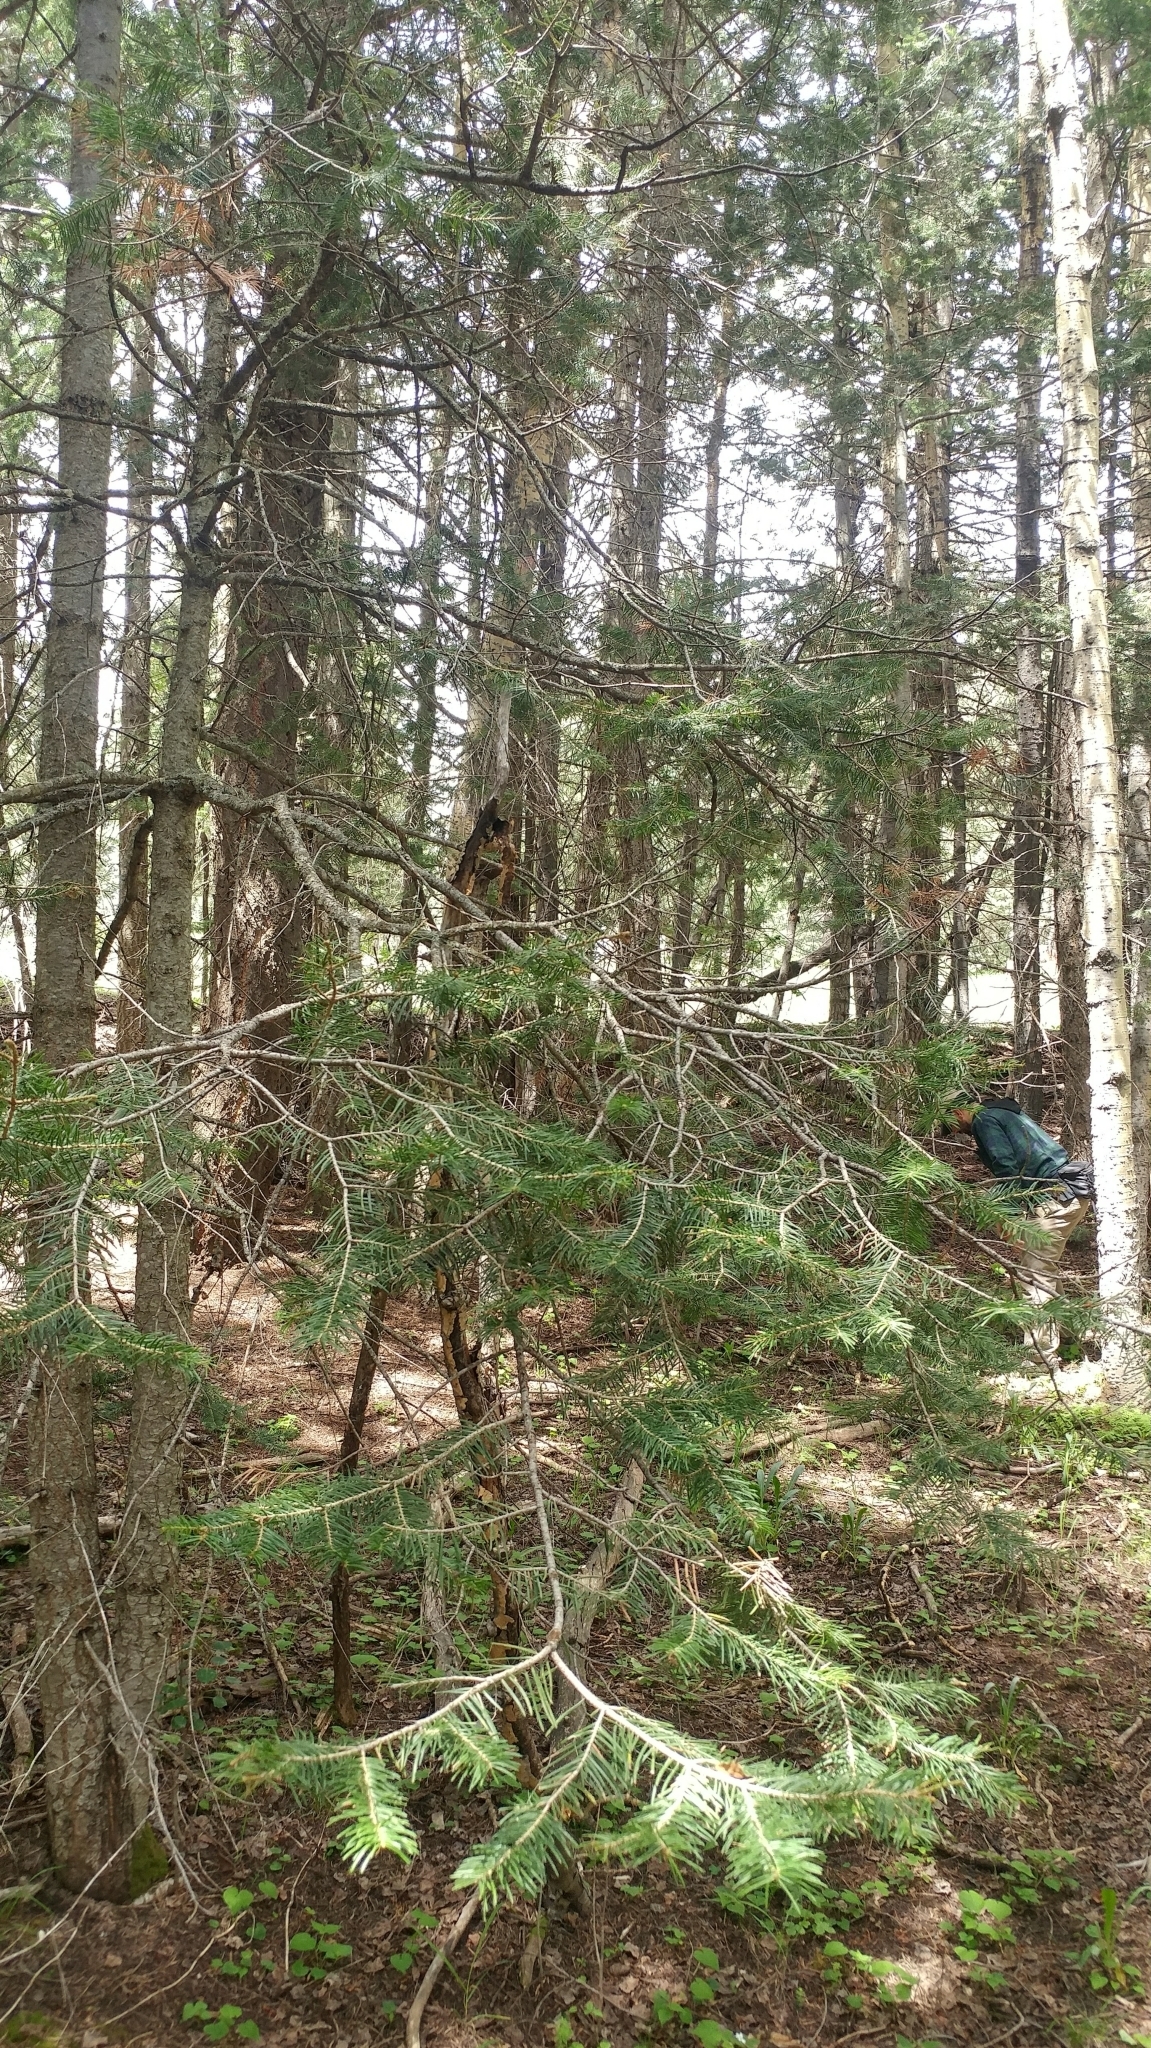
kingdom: Plantae
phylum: Tracheophyta
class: Pinopsida
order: Pinales
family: Pinaceae
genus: Abies
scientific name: Abies concolor
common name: Colorado fir
